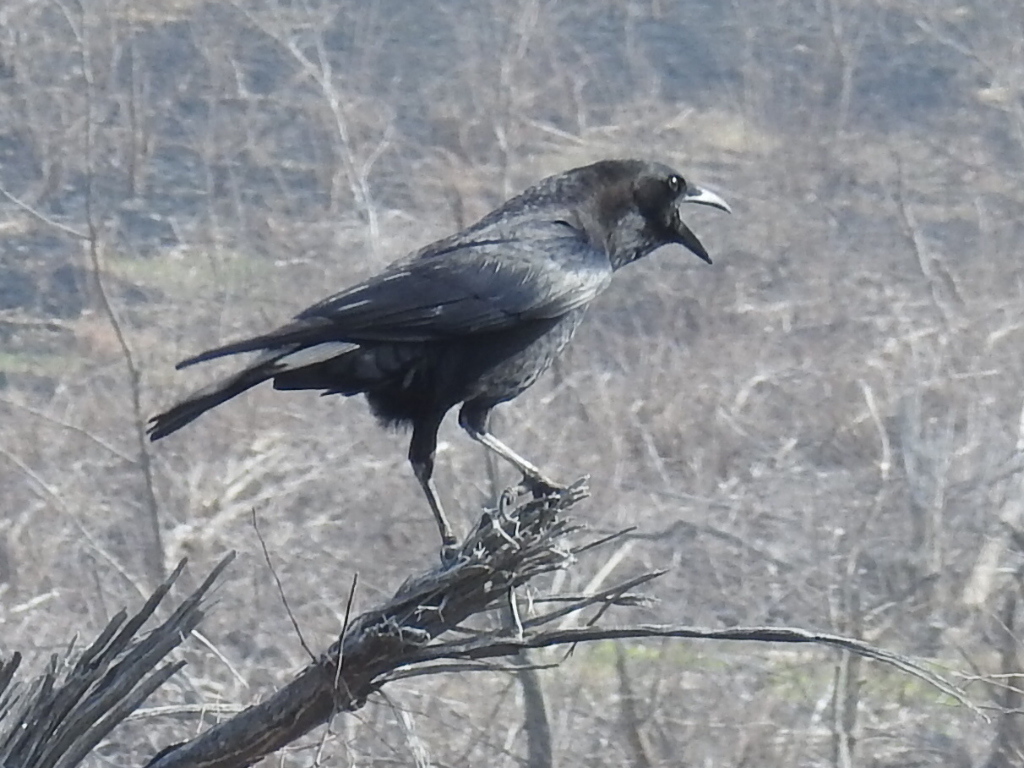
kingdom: Animalia
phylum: Chordata
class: Aves
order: Passeriformes
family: Corvidae
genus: Corvus
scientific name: Corvus brachyrhynchos
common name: American crow
